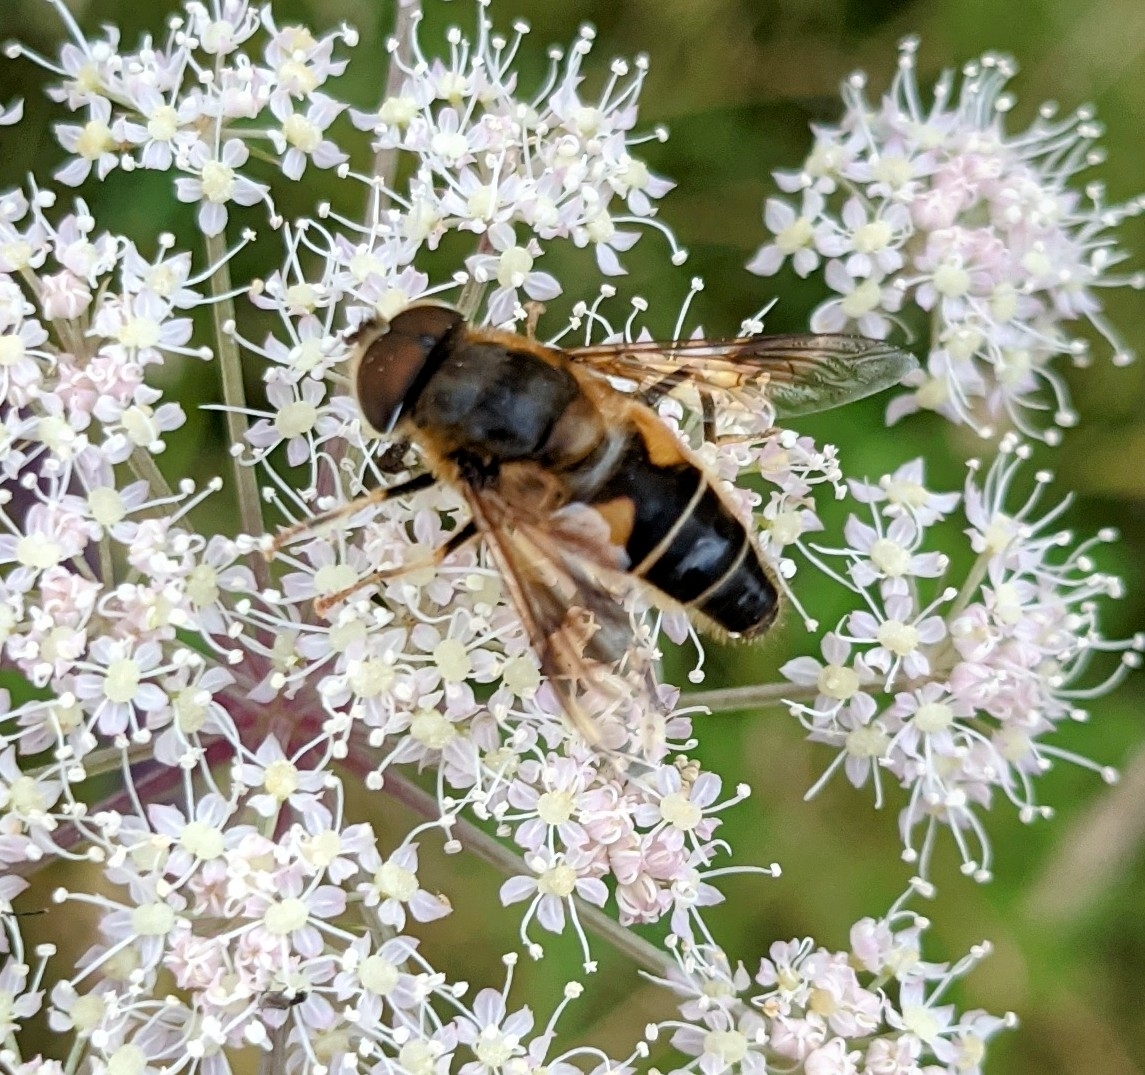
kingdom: Animalia
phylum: Arthropoda
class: Insecta
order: Diptera
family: Syrphidae
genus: Eristalis
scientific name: Eristalis pertinax
